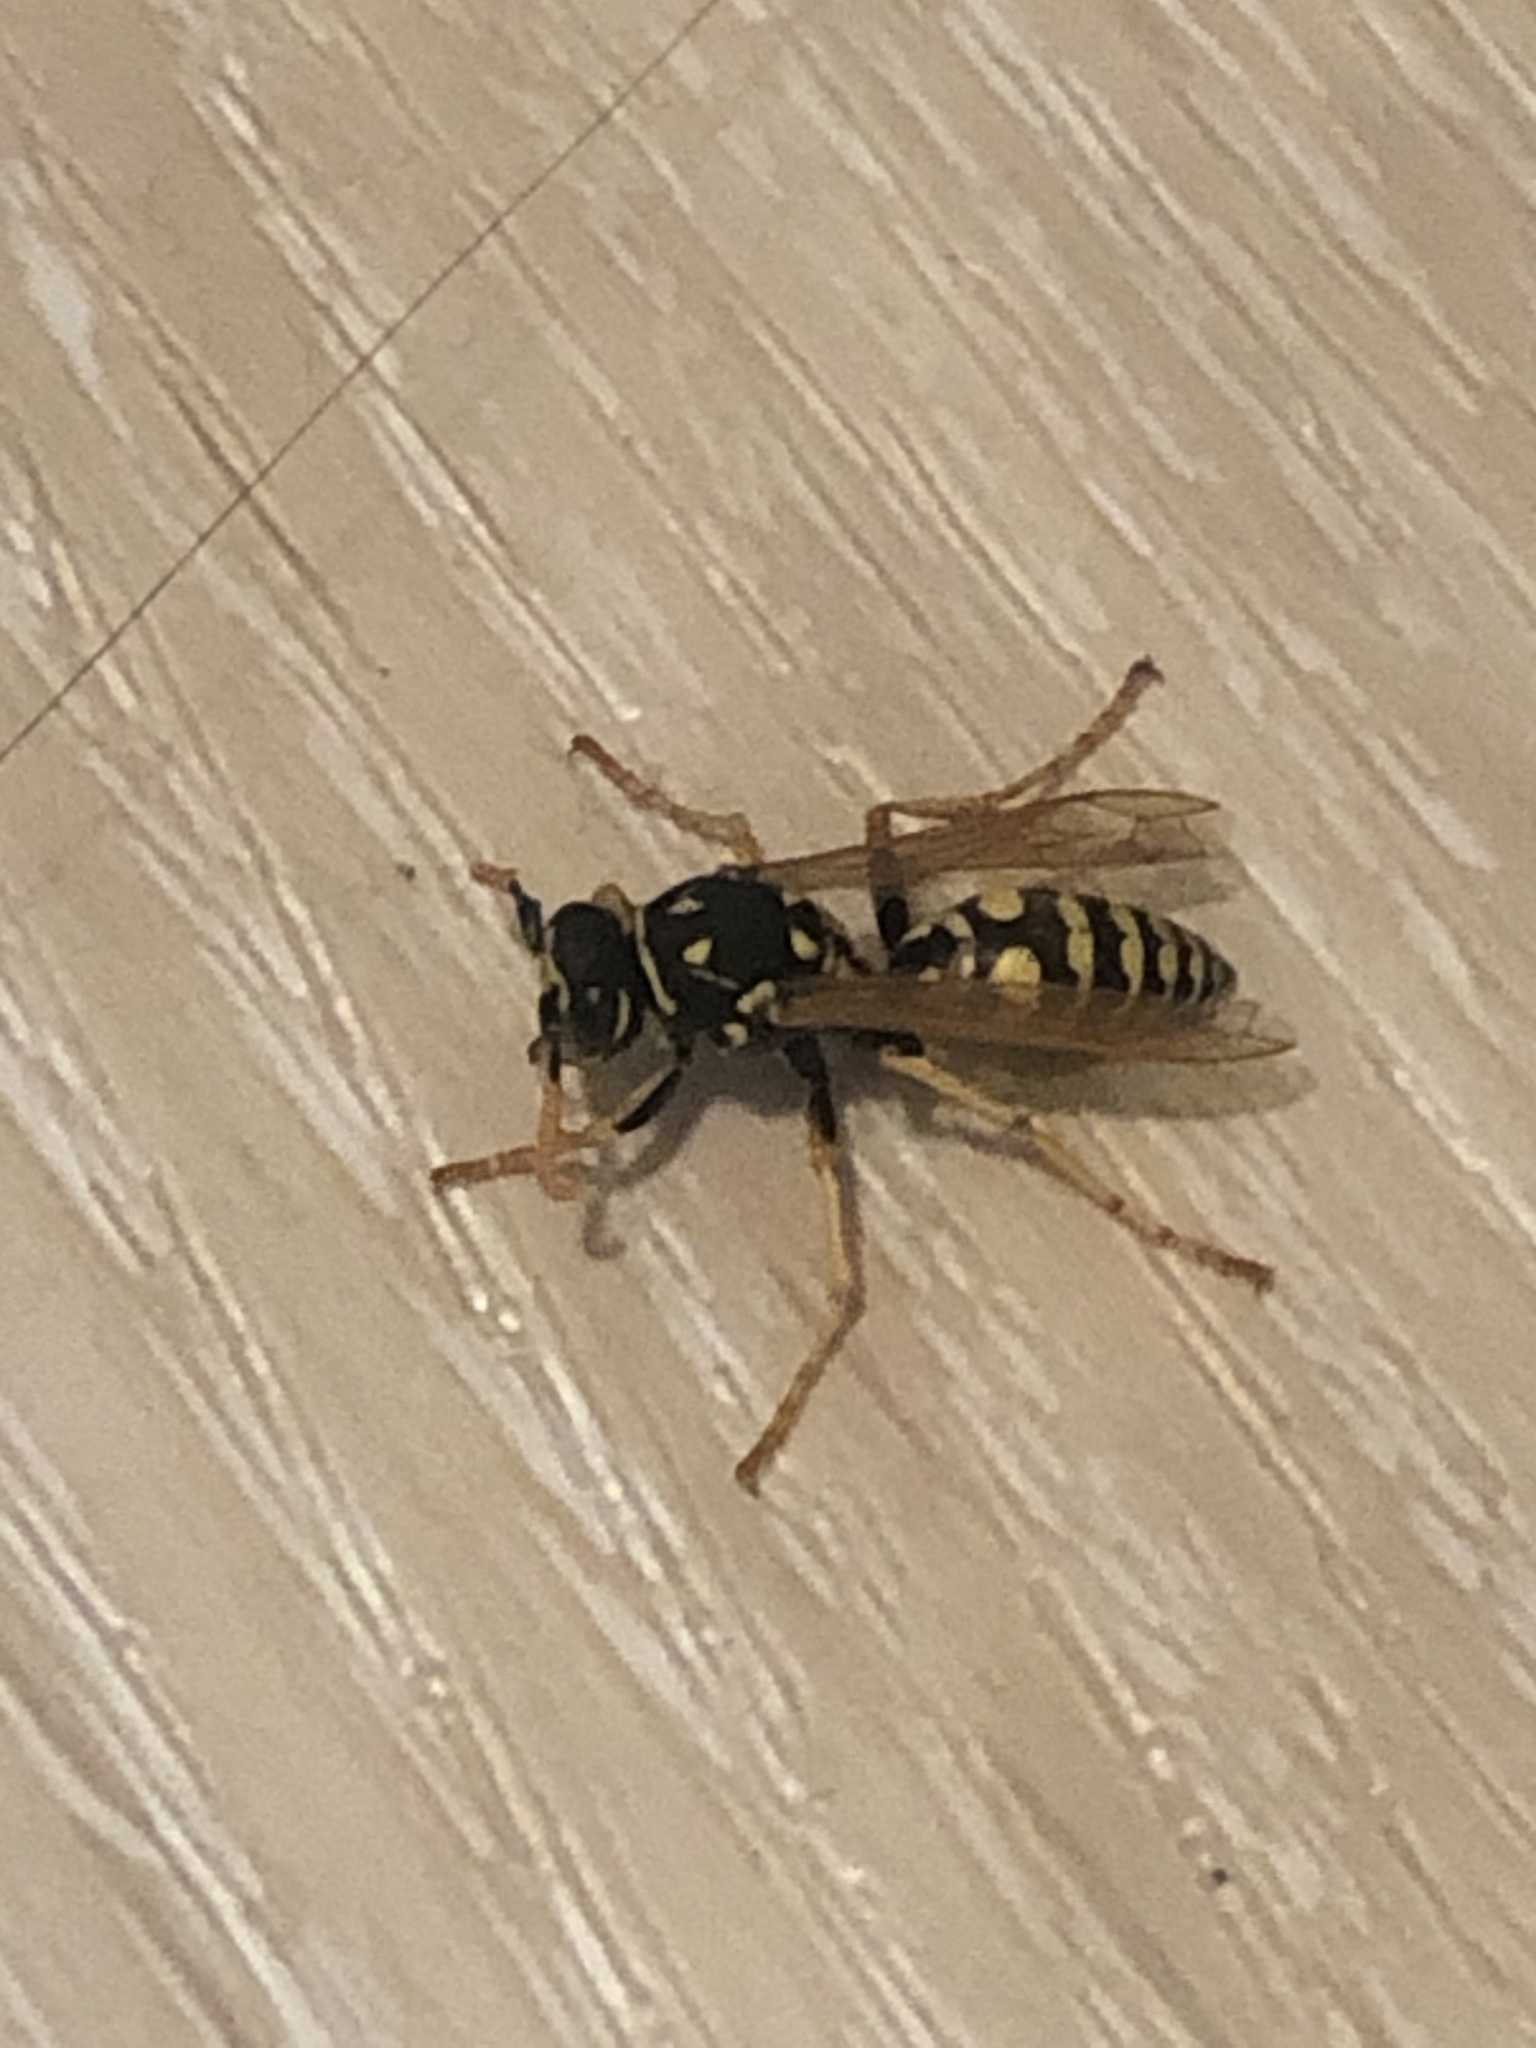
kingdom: Animalia
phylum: Arthropoda
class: Insecta
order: Hymenoptera
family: Eumenidae
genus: Polistes
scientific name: Polistes dominula
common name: Paper wasp
